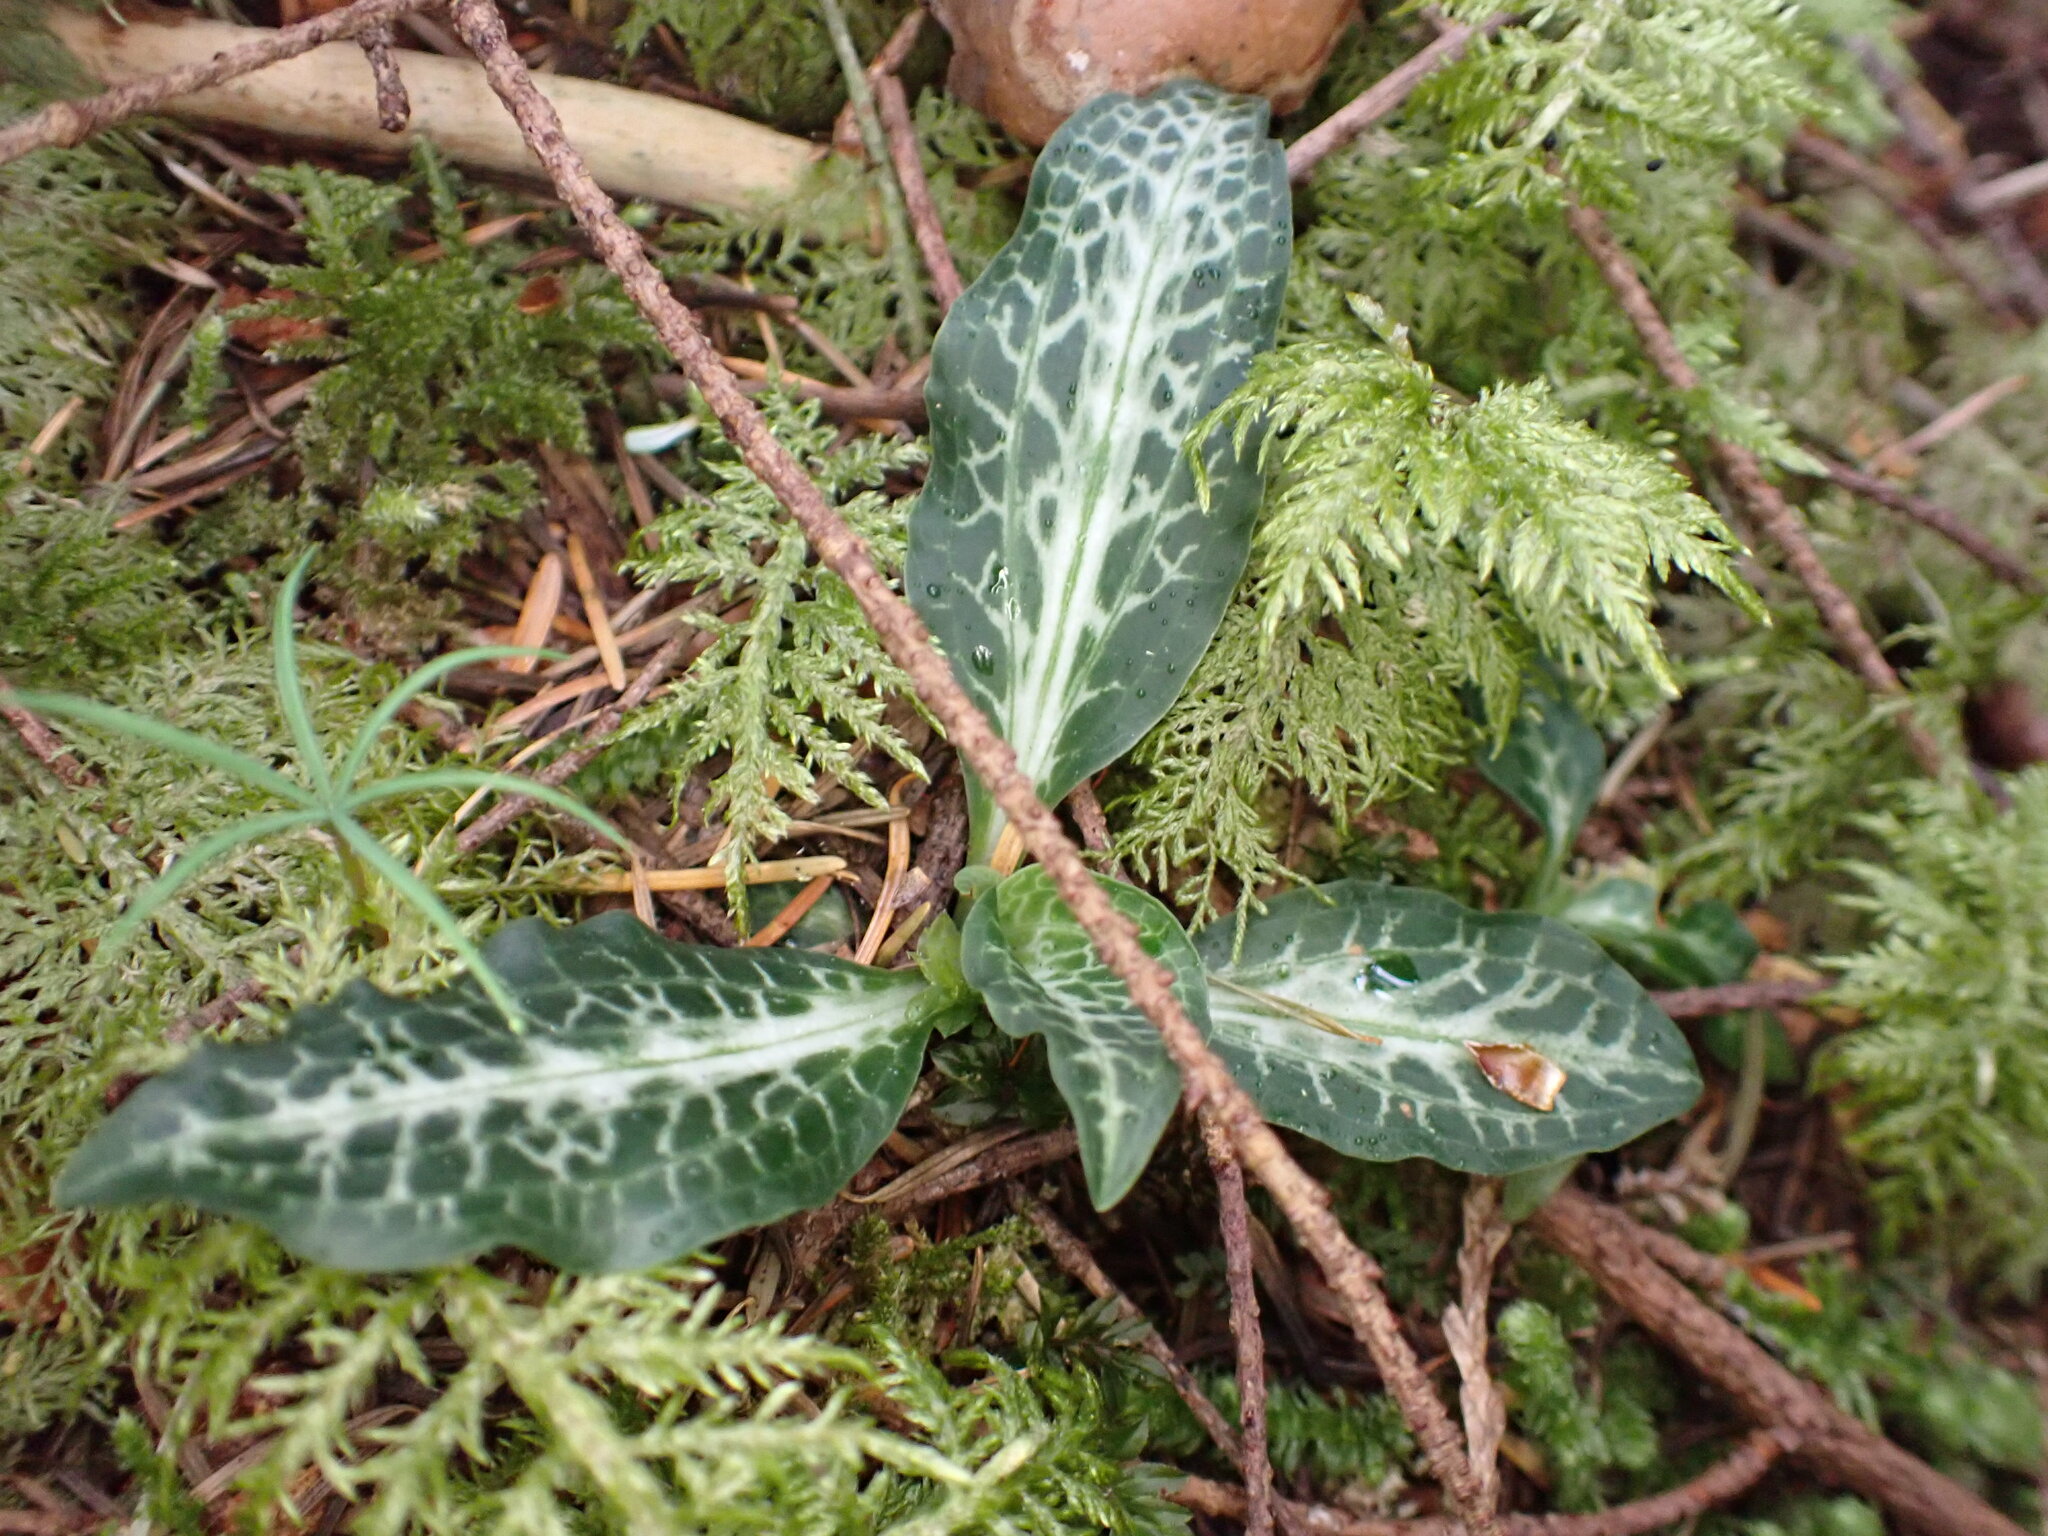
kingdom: Plantae
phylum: Tracheophyta
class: Liliopsida
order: Asparagales
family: Orchidaceae
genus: Goodyera
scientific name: Goodyera oblongifolia
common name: Giant rattlesnake-plantain
